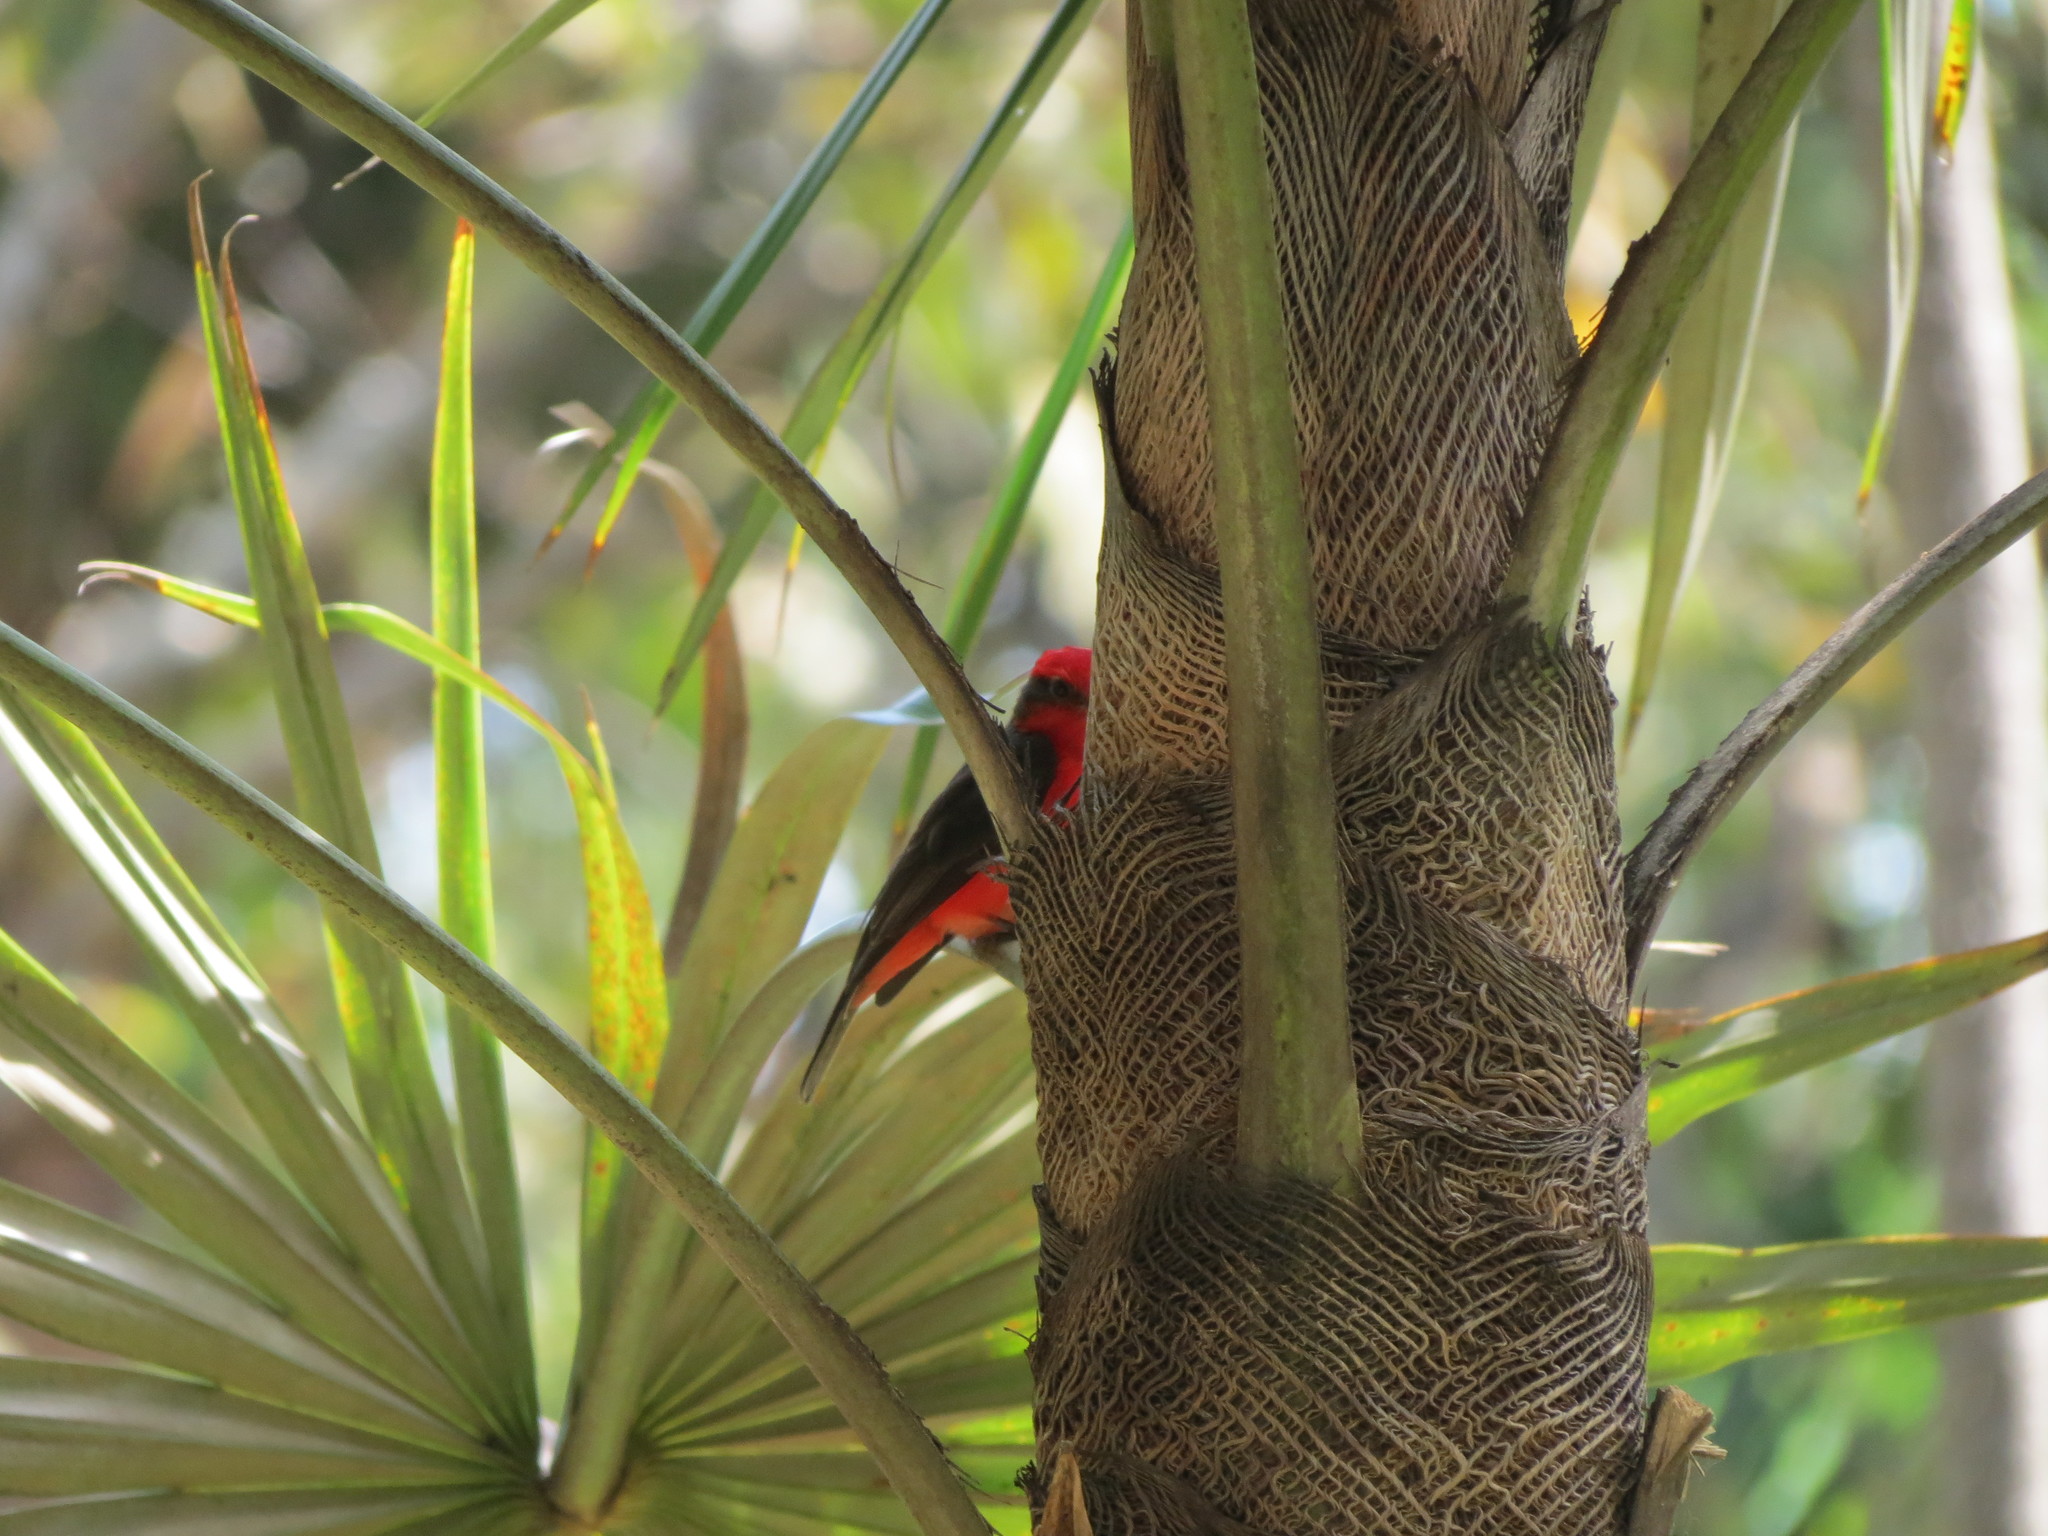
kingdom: Animalia
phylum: Chordata
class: Aves
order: Passeriformes
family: Tyrannidae
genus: Pyrocephalus
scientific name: Pyrocephalus rubinus
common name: Vermilion flycatcher
